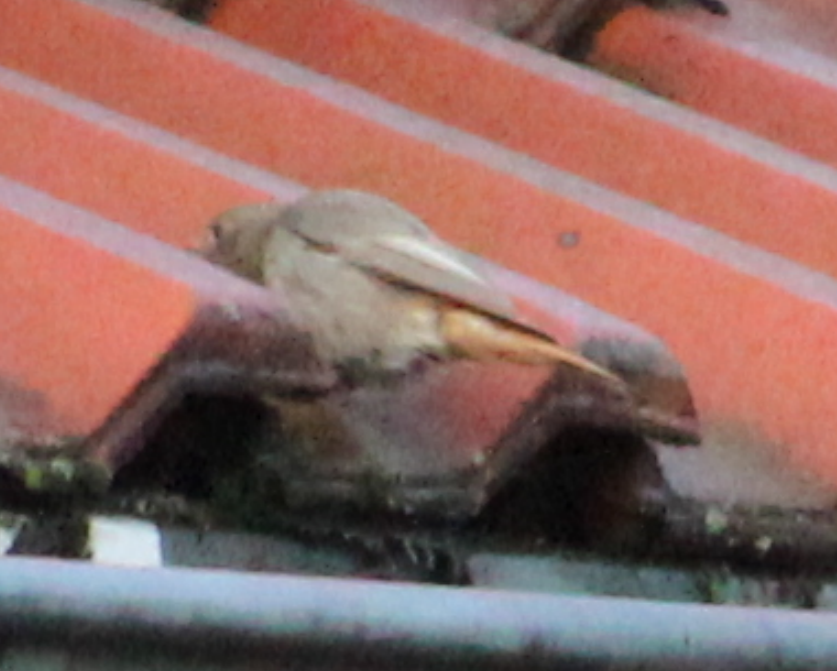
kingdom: Animalia
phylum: Chordata
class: Aves
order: Passeriformes
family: Muscicapidae
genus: Phoenicurus
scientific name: Phoenicurus ochruros
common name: Black redstart
